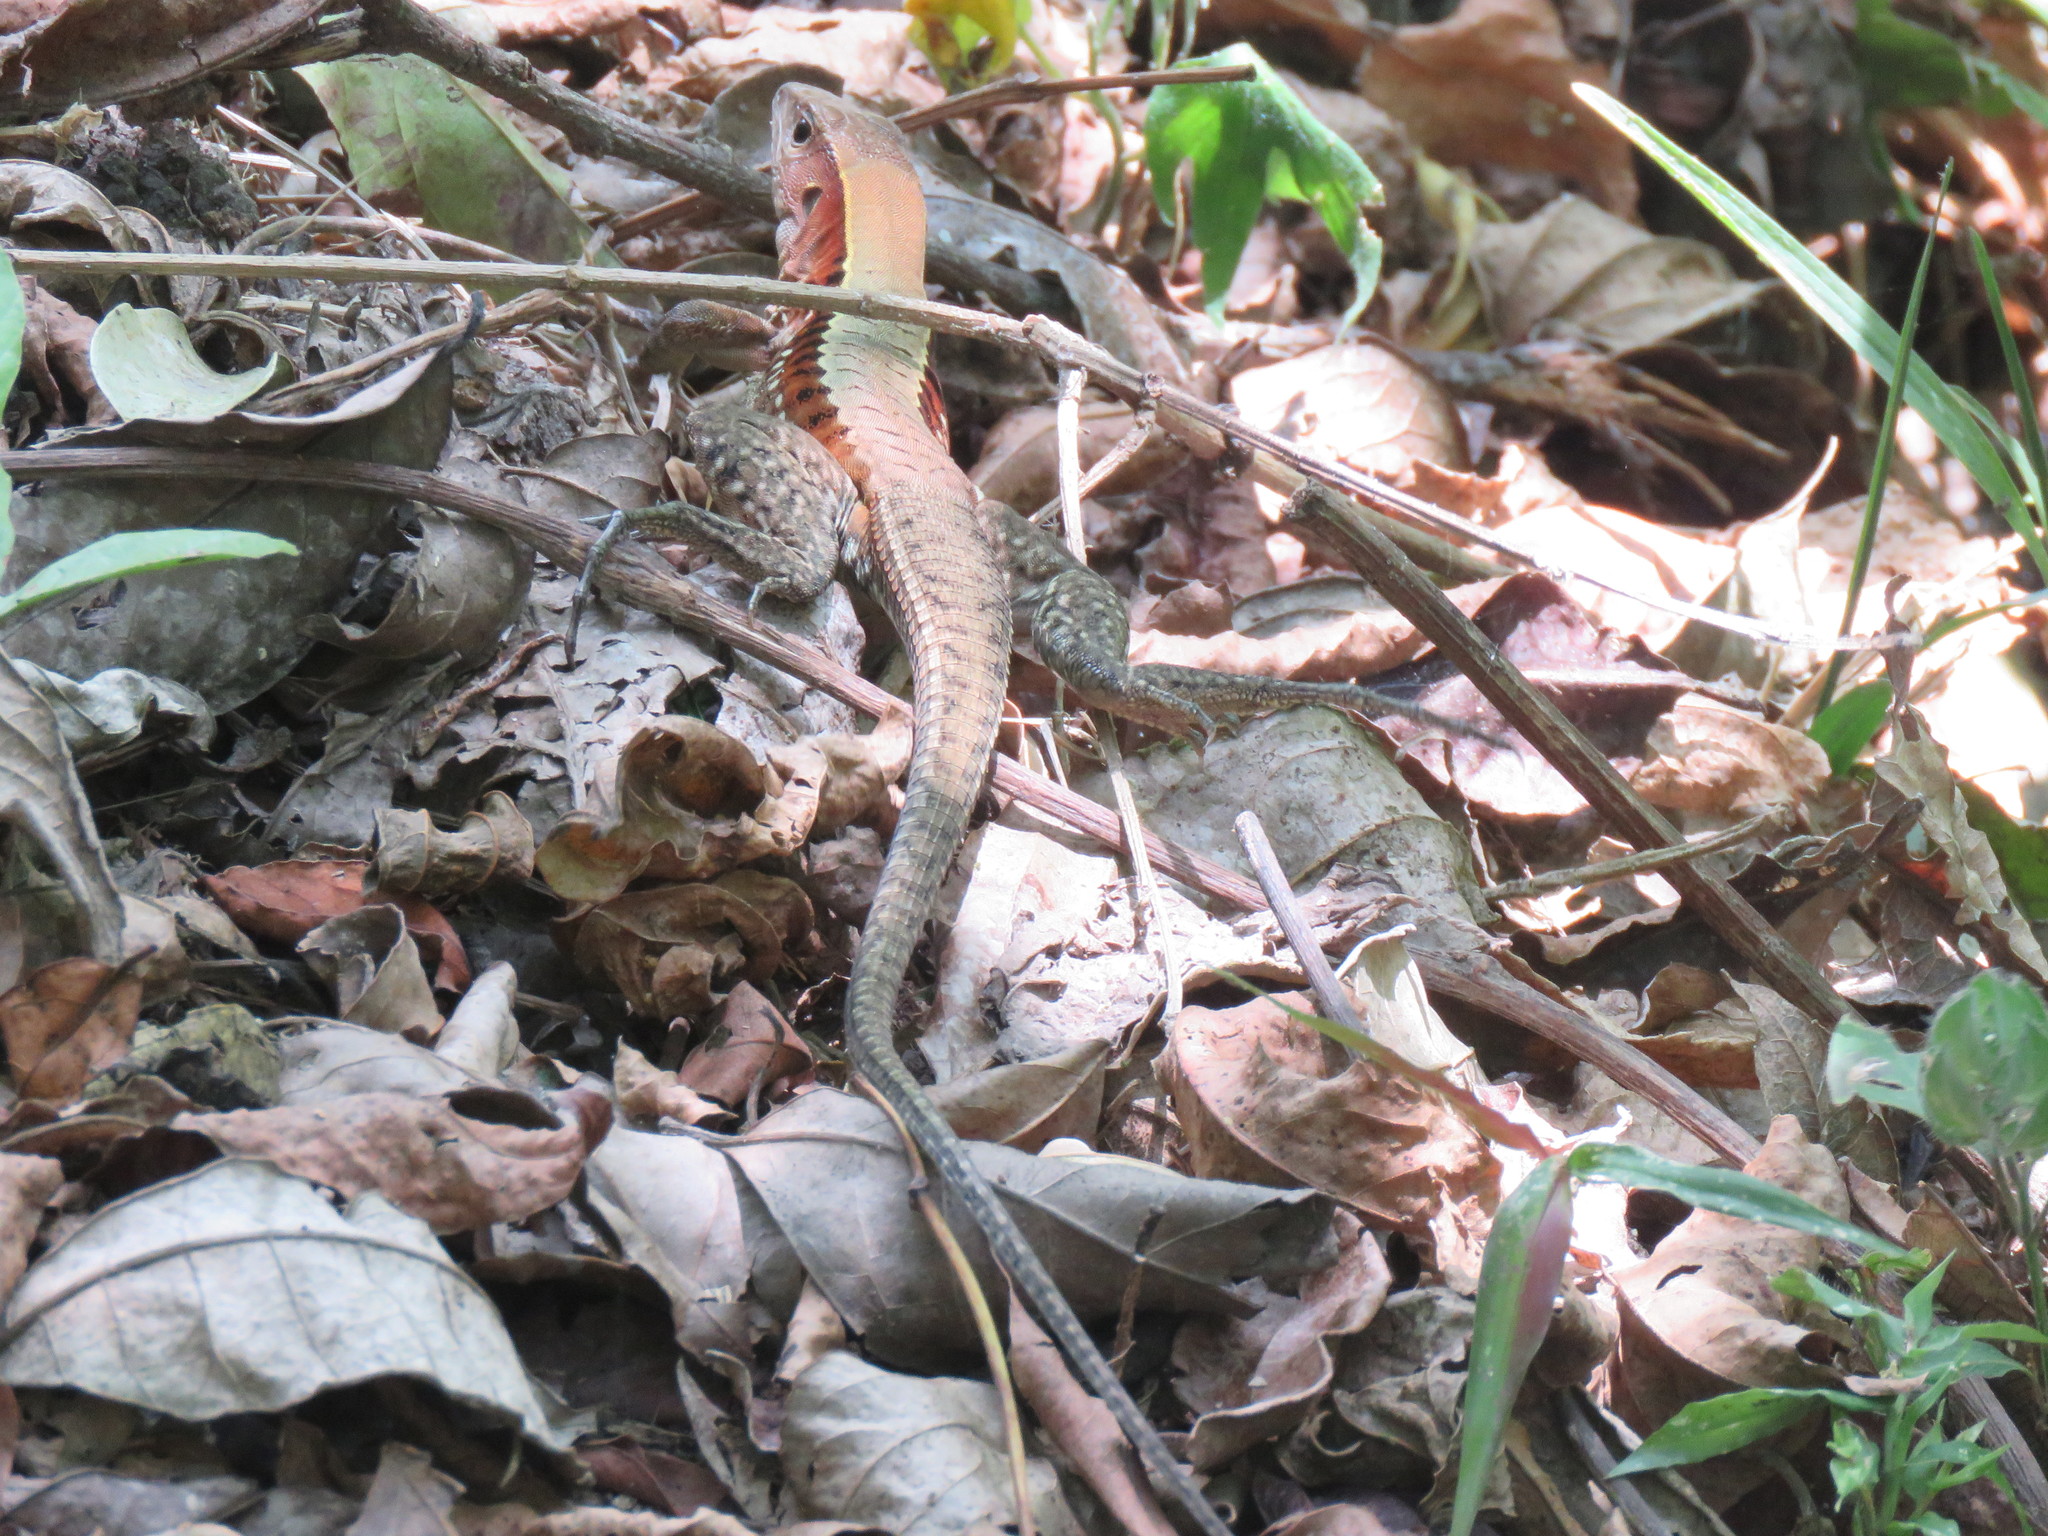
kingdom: Animalia
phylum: Chordata
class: Squamata
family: Teiidae
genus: Holcosus
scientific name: Holcosus leptophrys
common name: Delicate ameiva
